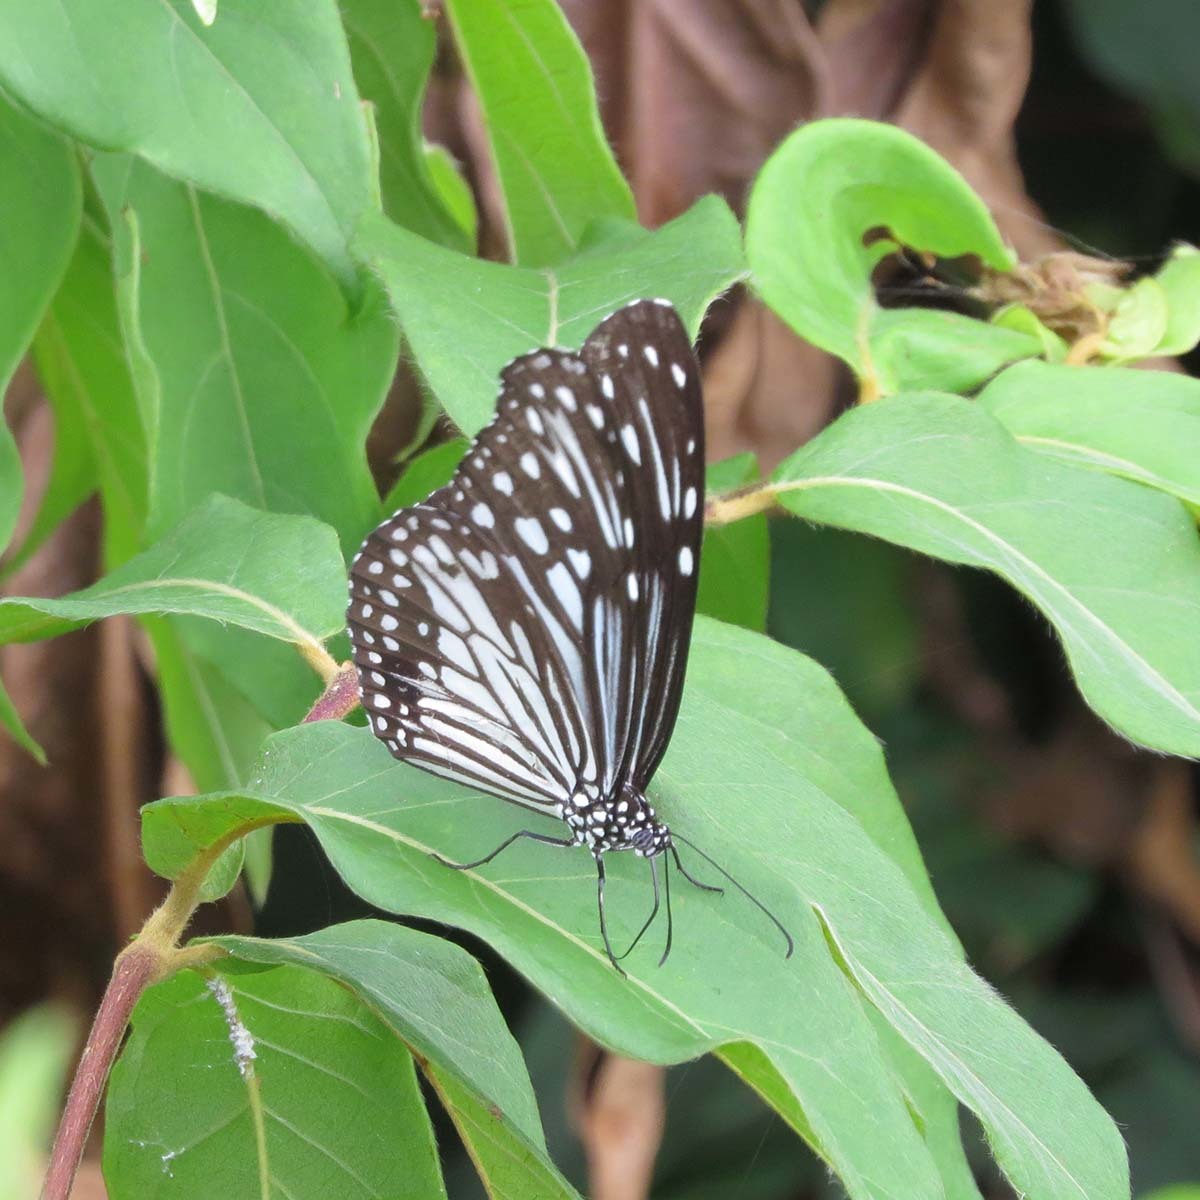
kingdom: Animalia
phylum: Arthropoda
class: Insecta
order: Lepidoptera
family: Nymphalidae
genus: Parantica
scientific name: Parantica aglea
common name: Glassy tiger
